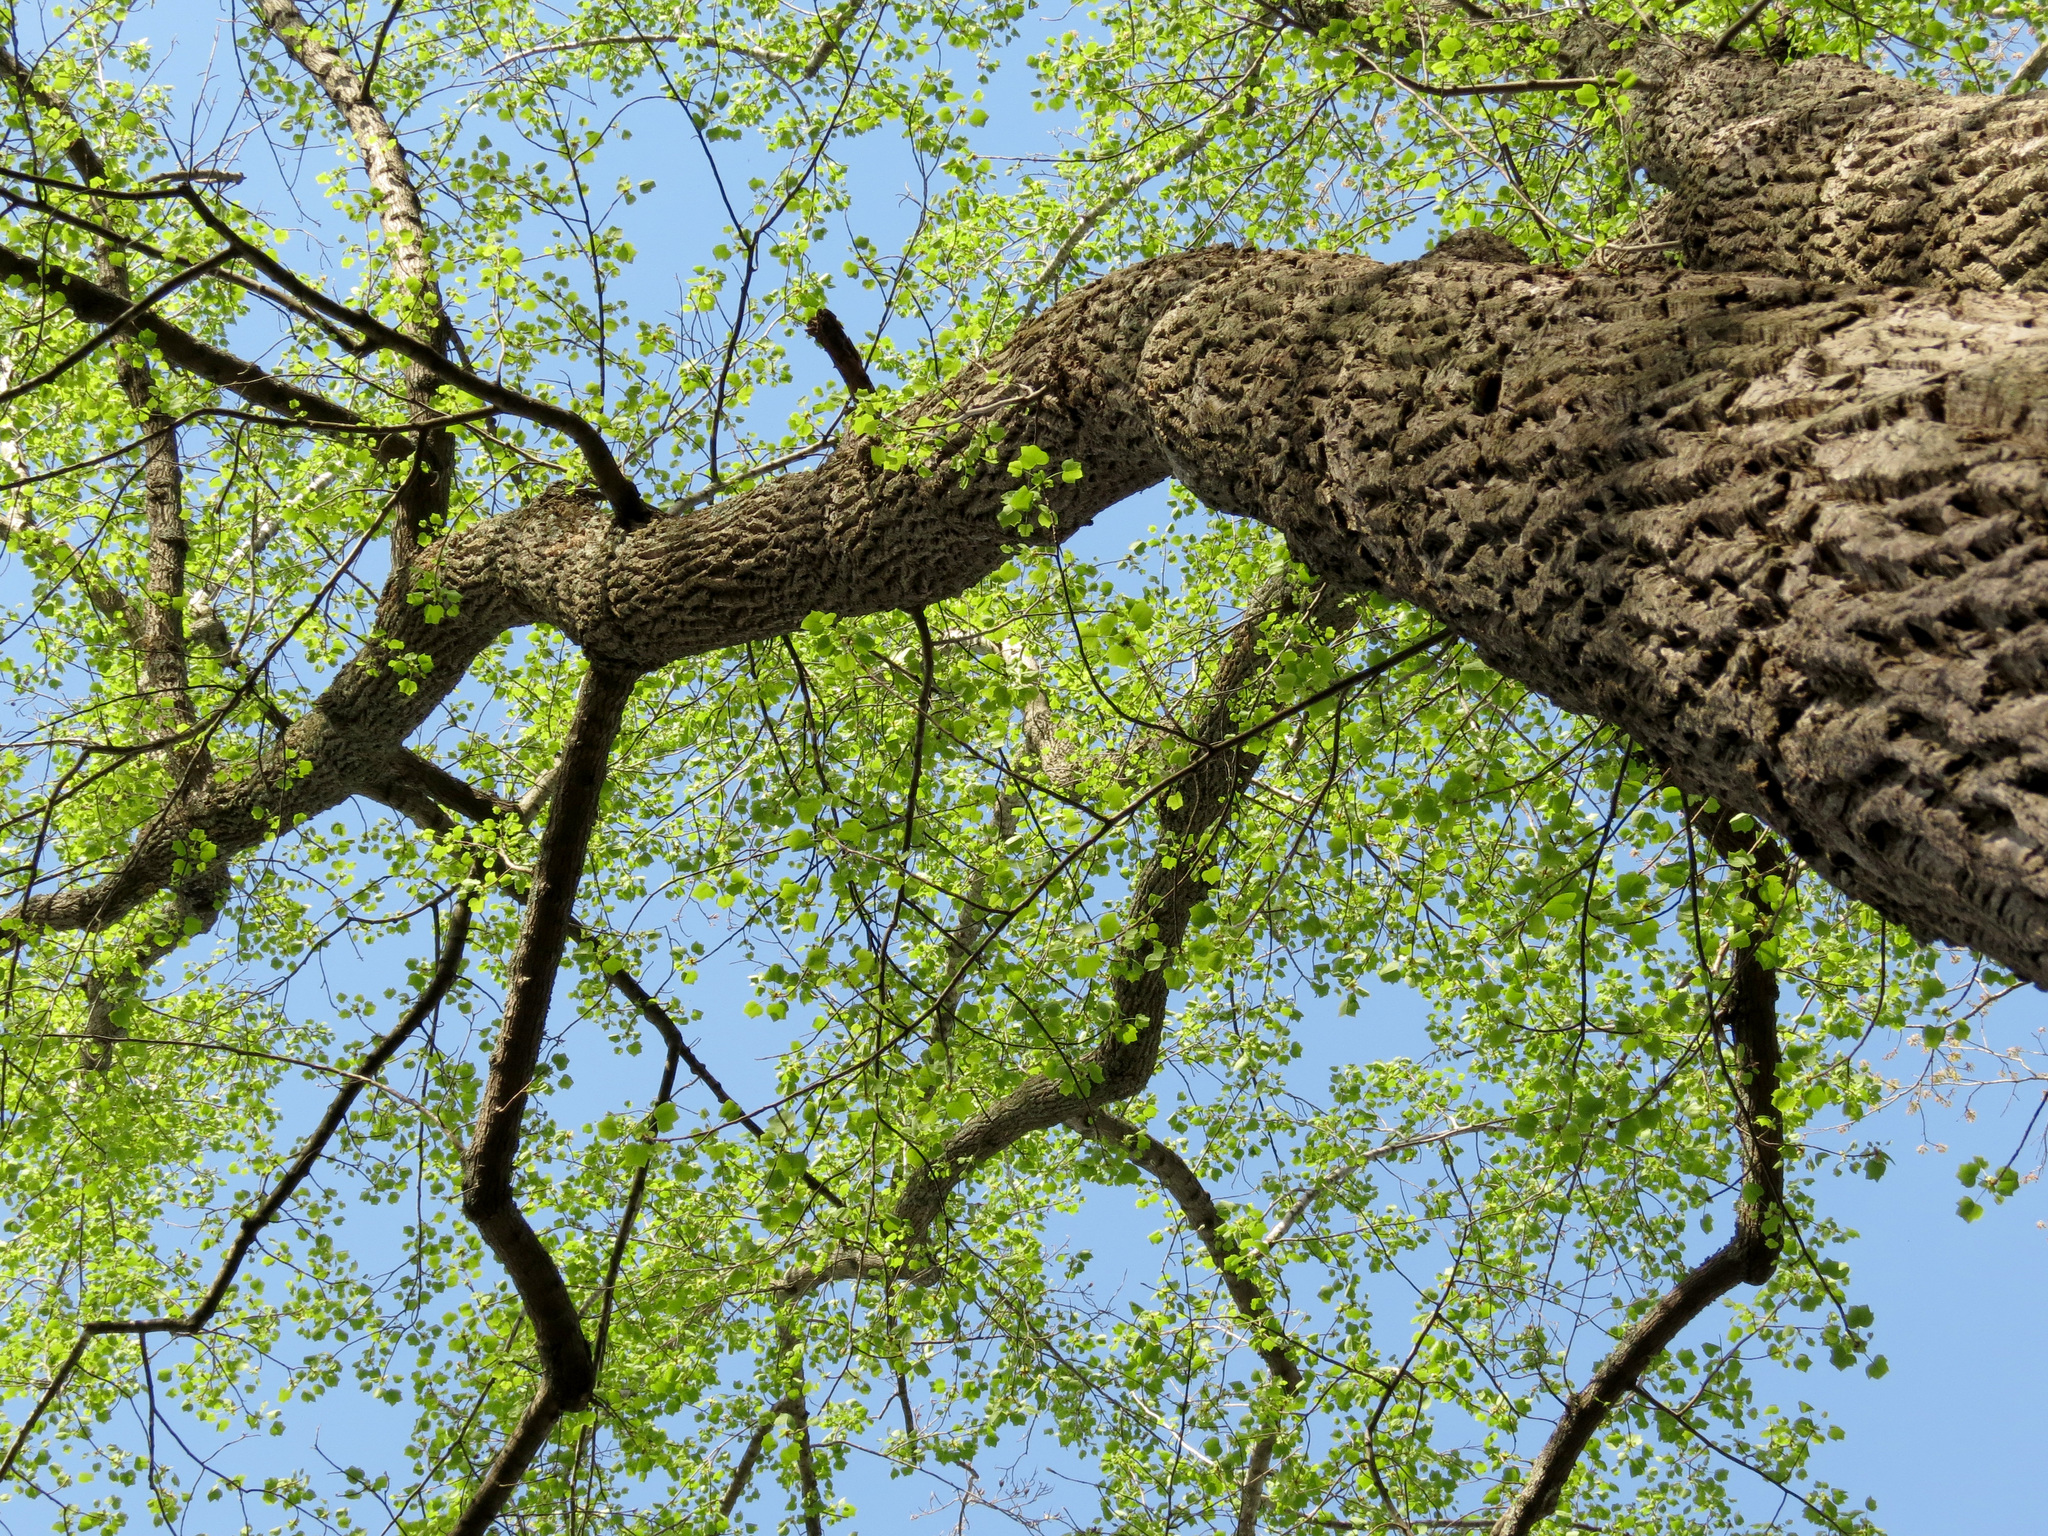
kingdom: Plantae
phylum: Tracheophyta
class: Magnoliopsida
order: Magnoliales
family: Magnoliaceae
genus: Liriodendron
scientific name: Liriodendron tulipifera
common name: Tulip tree
